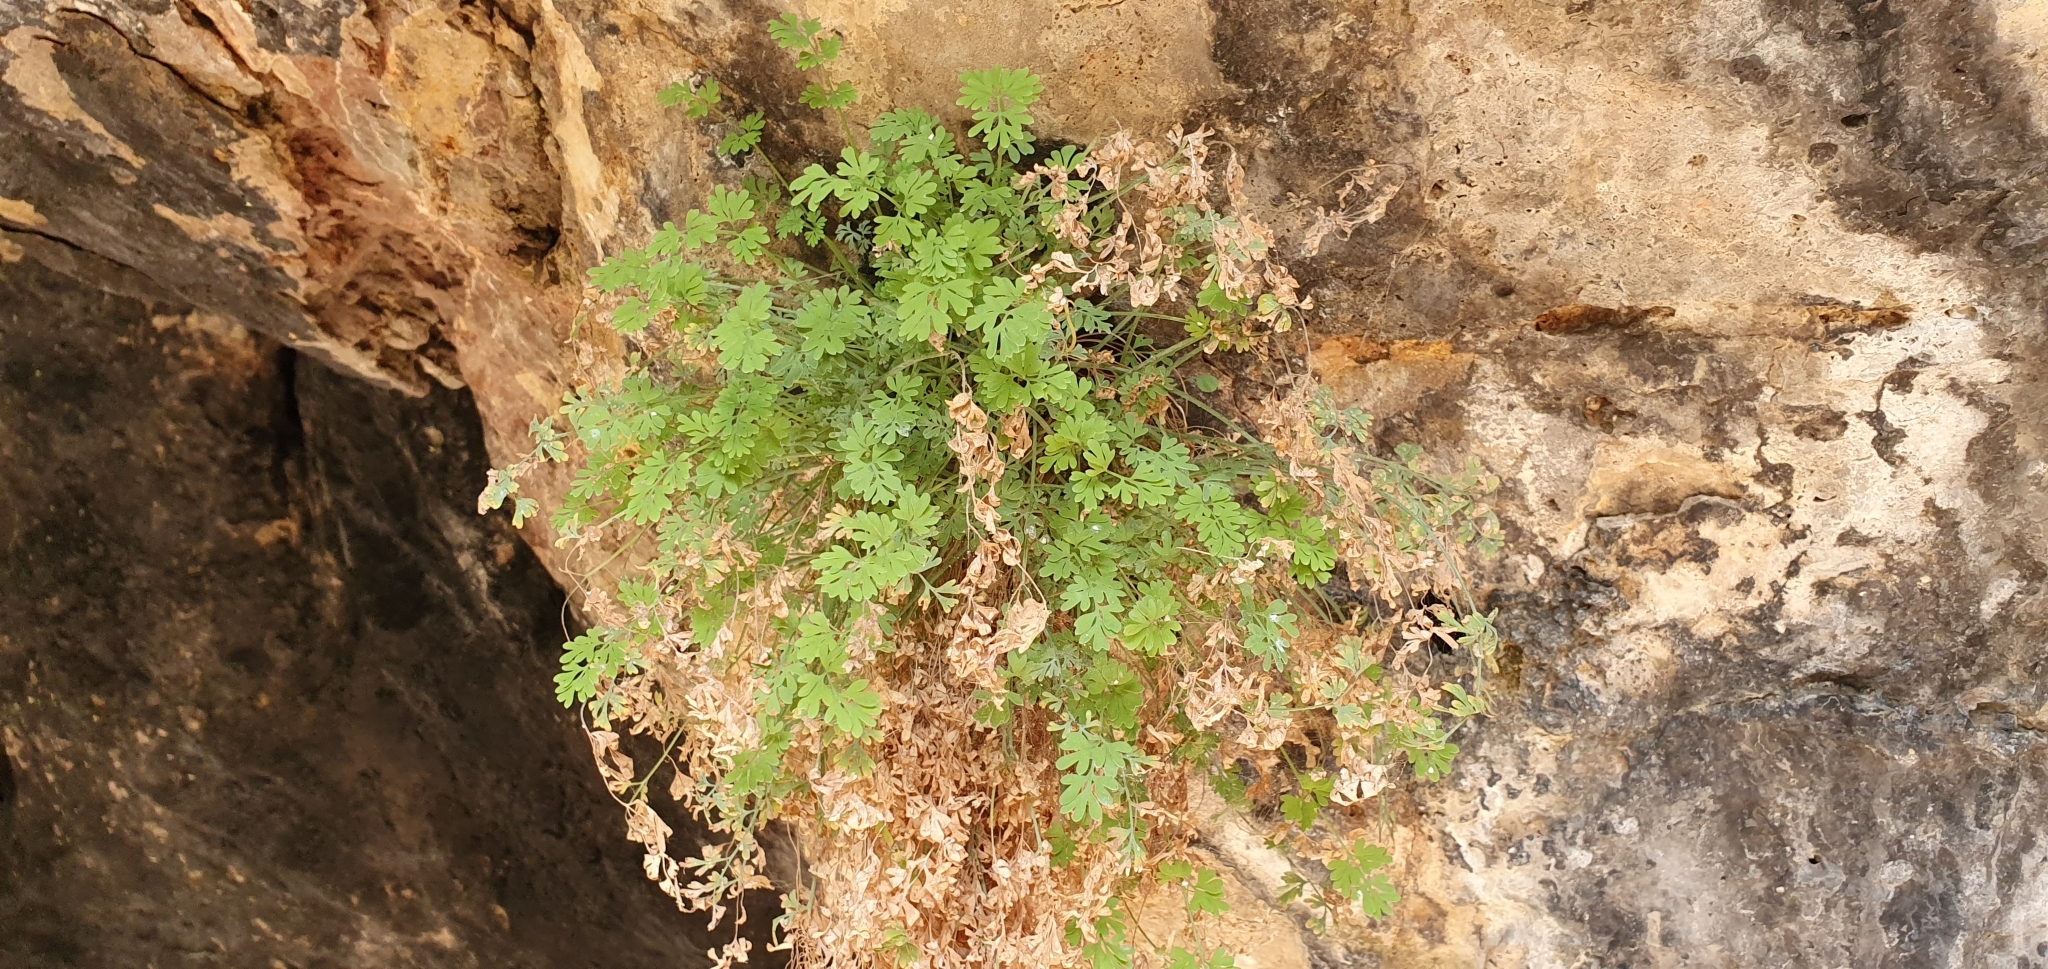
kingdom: Plantae
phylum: Tracheophyta
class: Magnoliopsida
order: Ranunculales
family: Papaveraceae
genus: Rupicapnos
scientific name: Rupicapnos numidica
